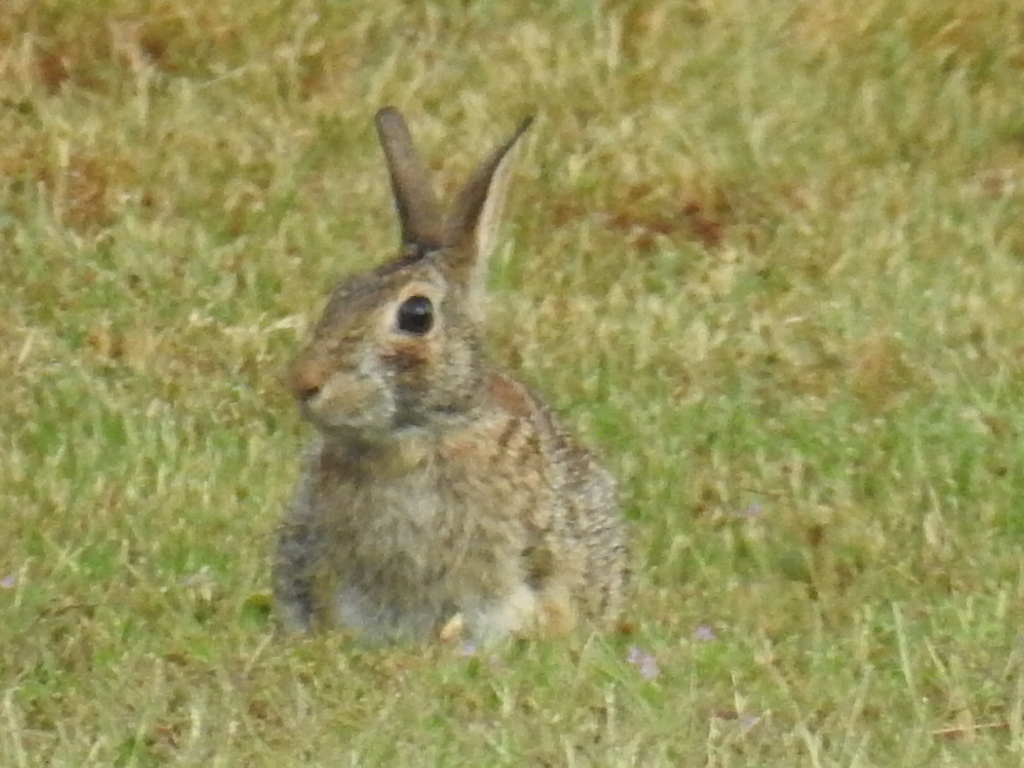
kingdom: Animalia
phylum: Chordata
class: Mammalia
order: Lagomorpha
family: Leporidae
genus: Sylvilagus
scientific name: Sylvilagus floridanus
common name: Eastern cottontail
